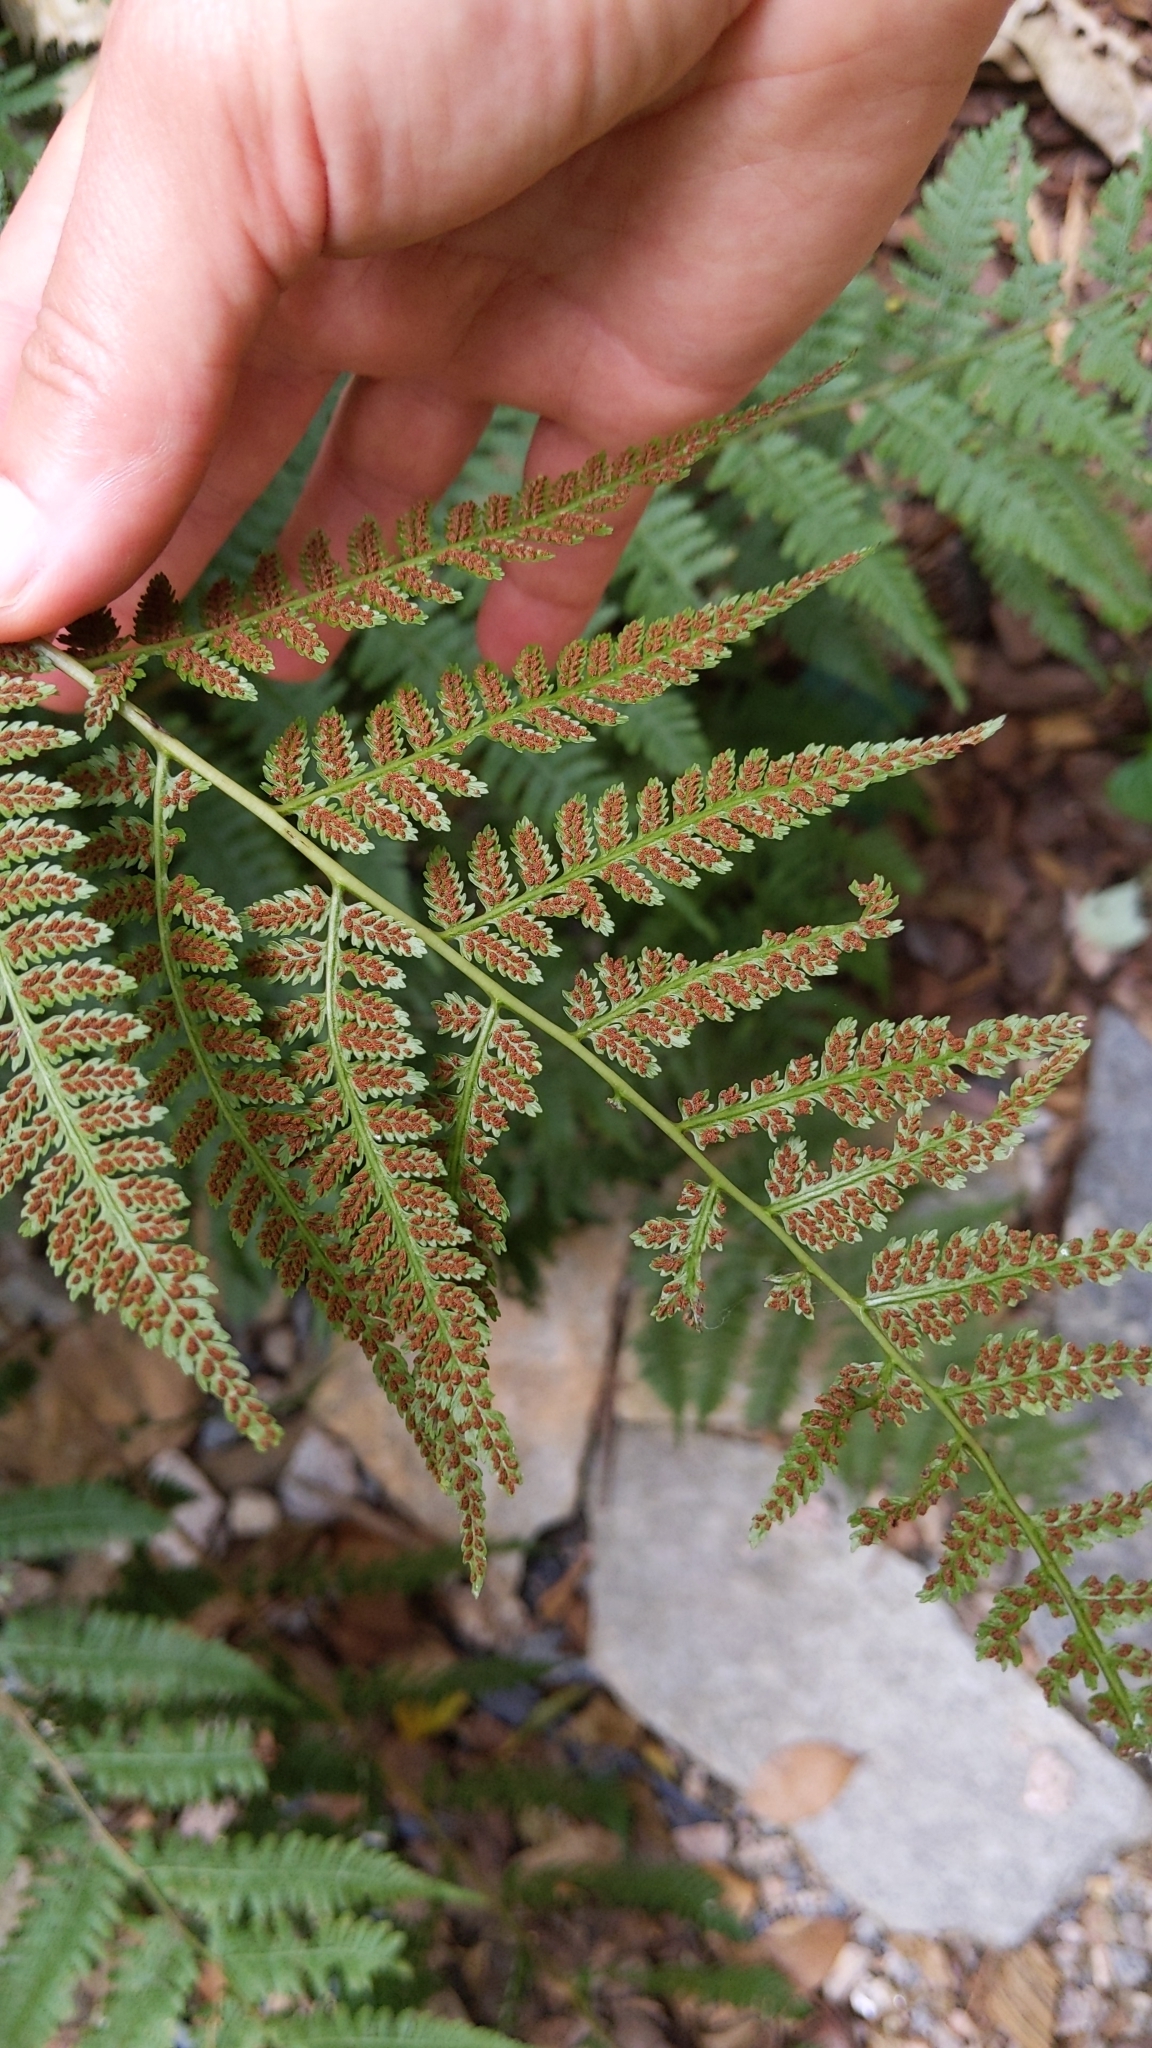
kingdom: Plantae
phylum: Tracheophyta
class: Polypodiopsida
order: Polypodiales
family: Athyriaceae
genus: Athyrium
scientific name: Athyrium asplenioides
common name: Southern lady fern
